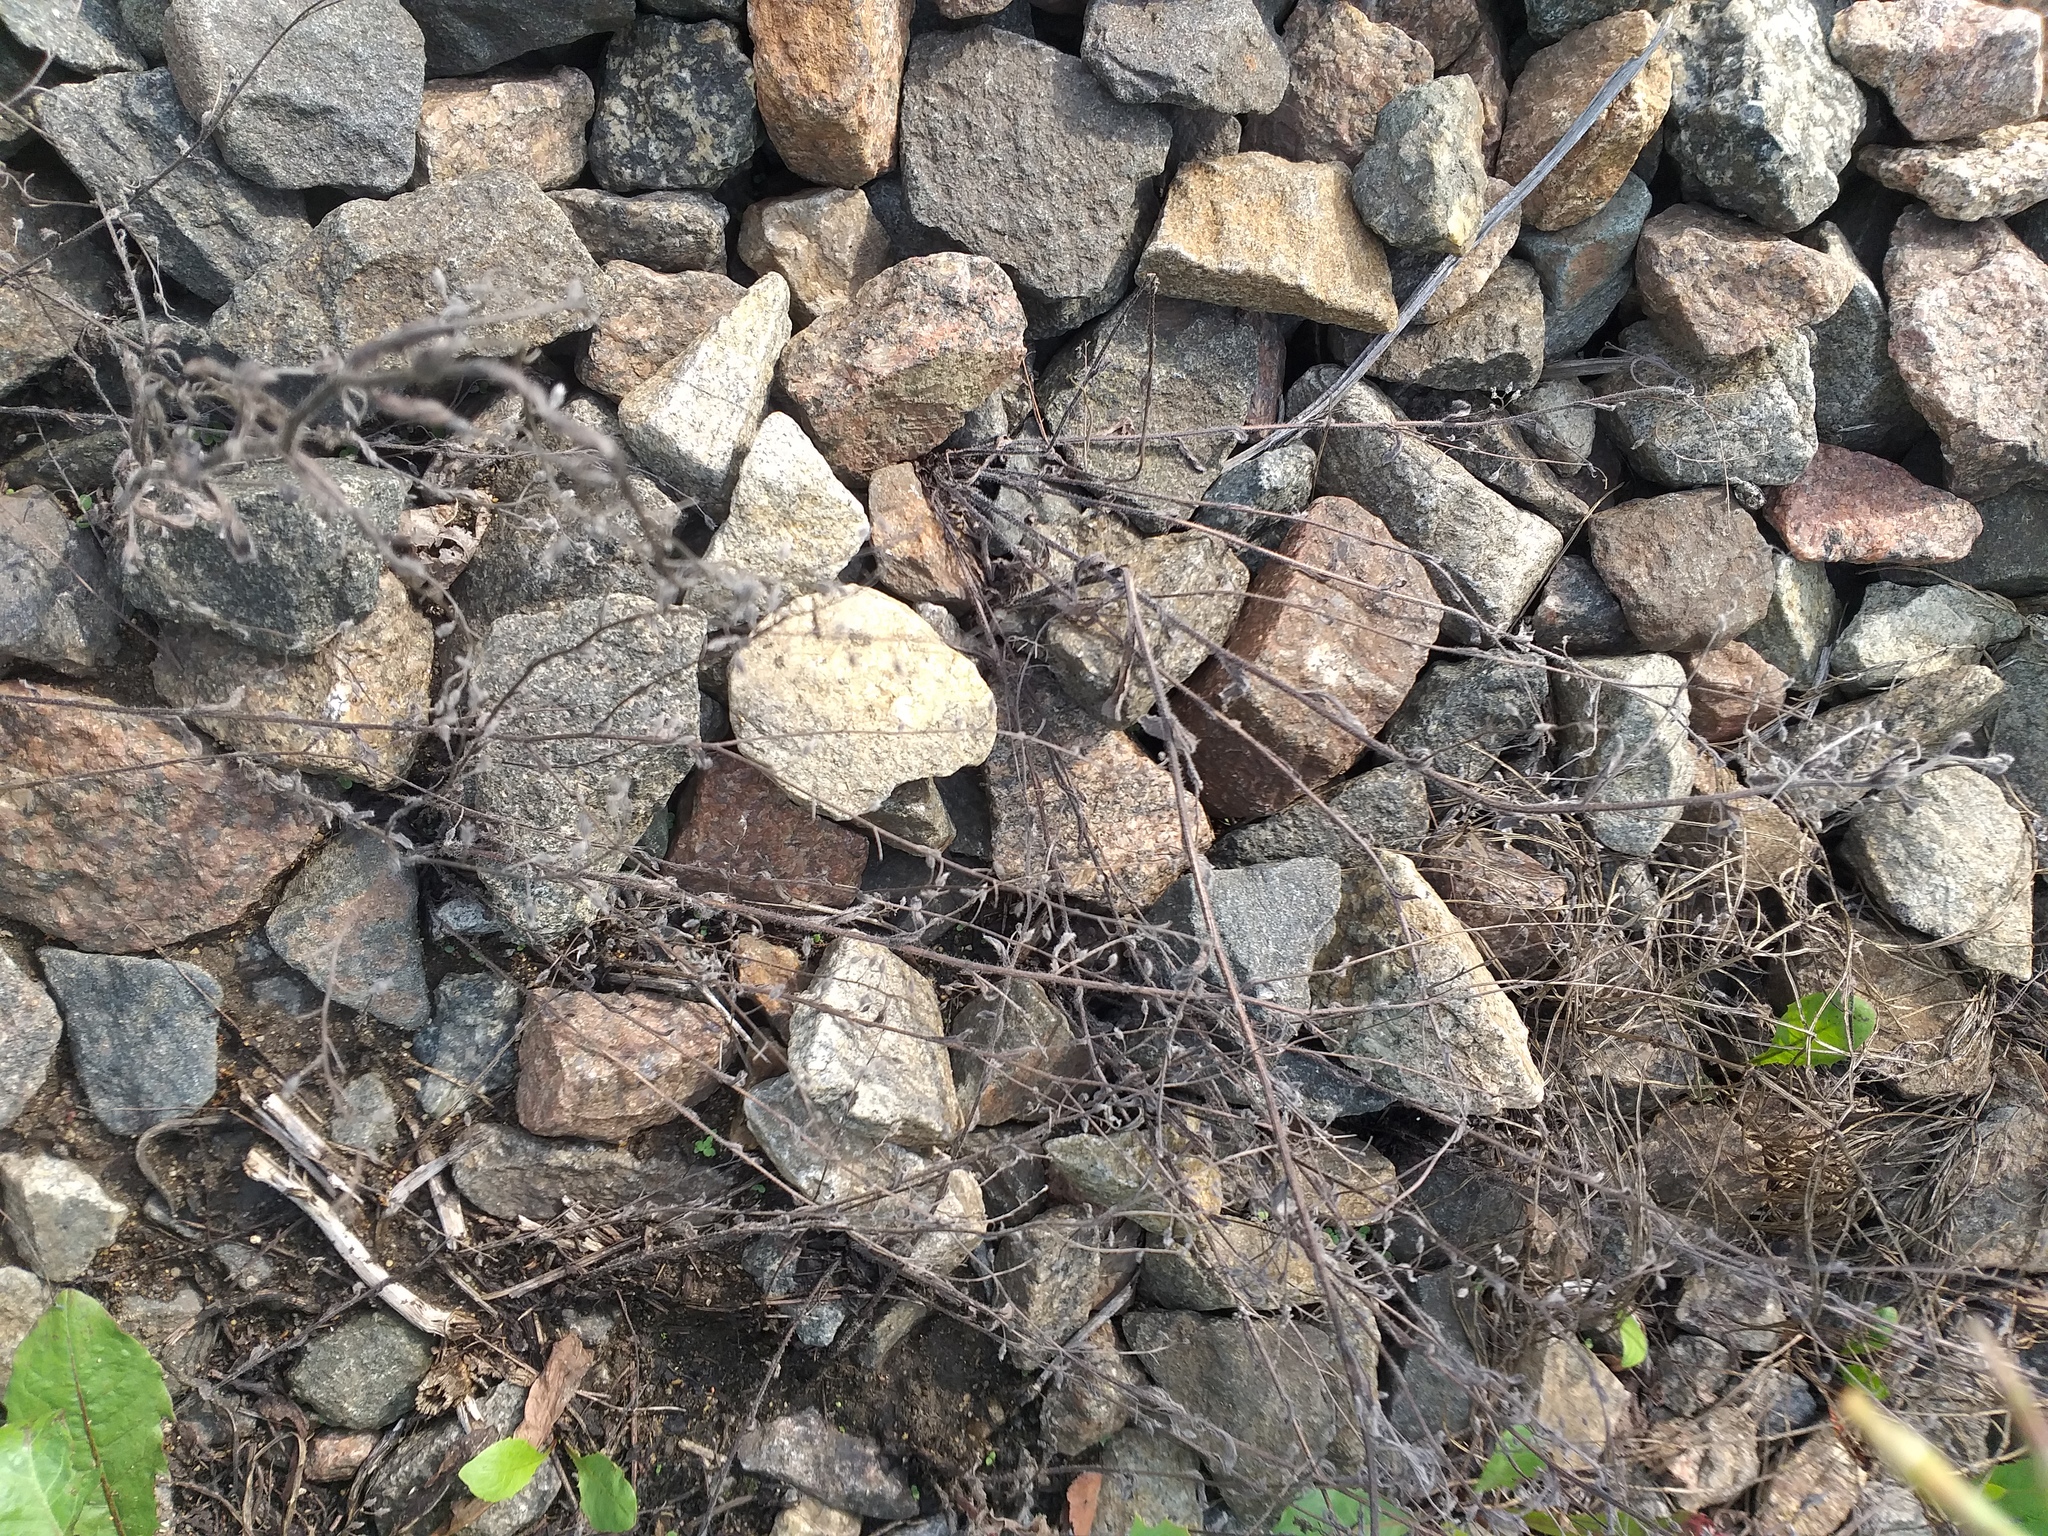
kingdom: Plantae
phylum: Tracheophyta
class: Magnoliopsida
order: Boraginales
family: Boraginaceae
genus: Myosotis
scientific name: Myosotis arvensis
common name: Field forget-me-not
